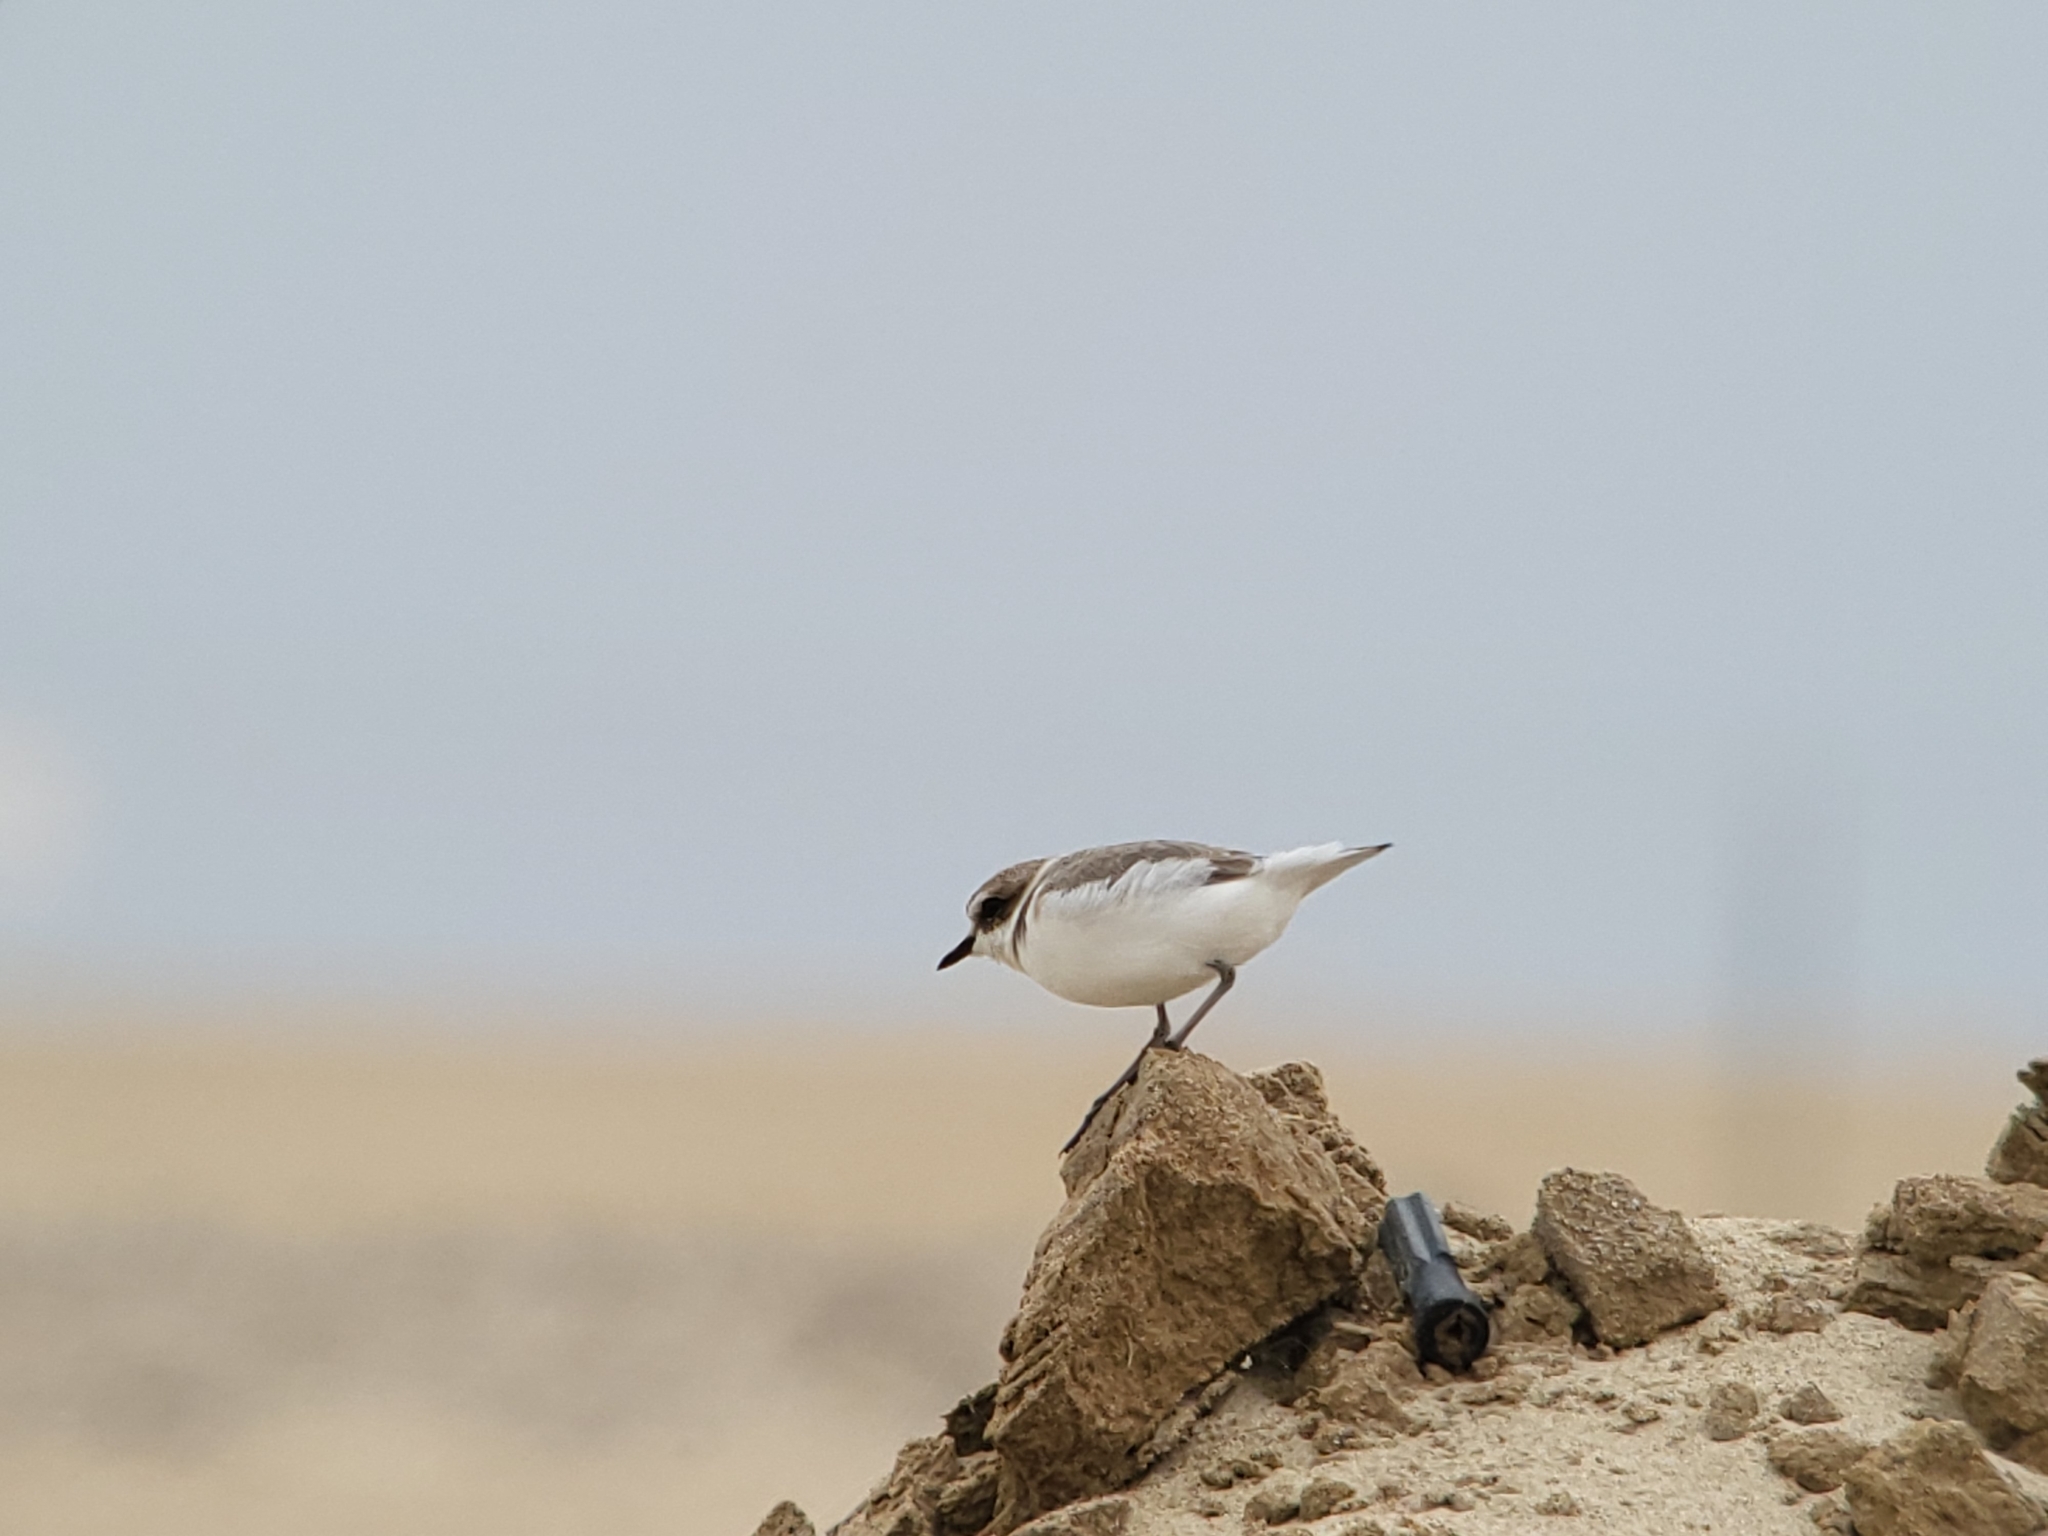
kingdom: Animalia
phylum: Chordata
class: Aves
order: Charadriiformes
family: Charadriidae
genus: Anarhynchus
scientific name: Anarhynchus
